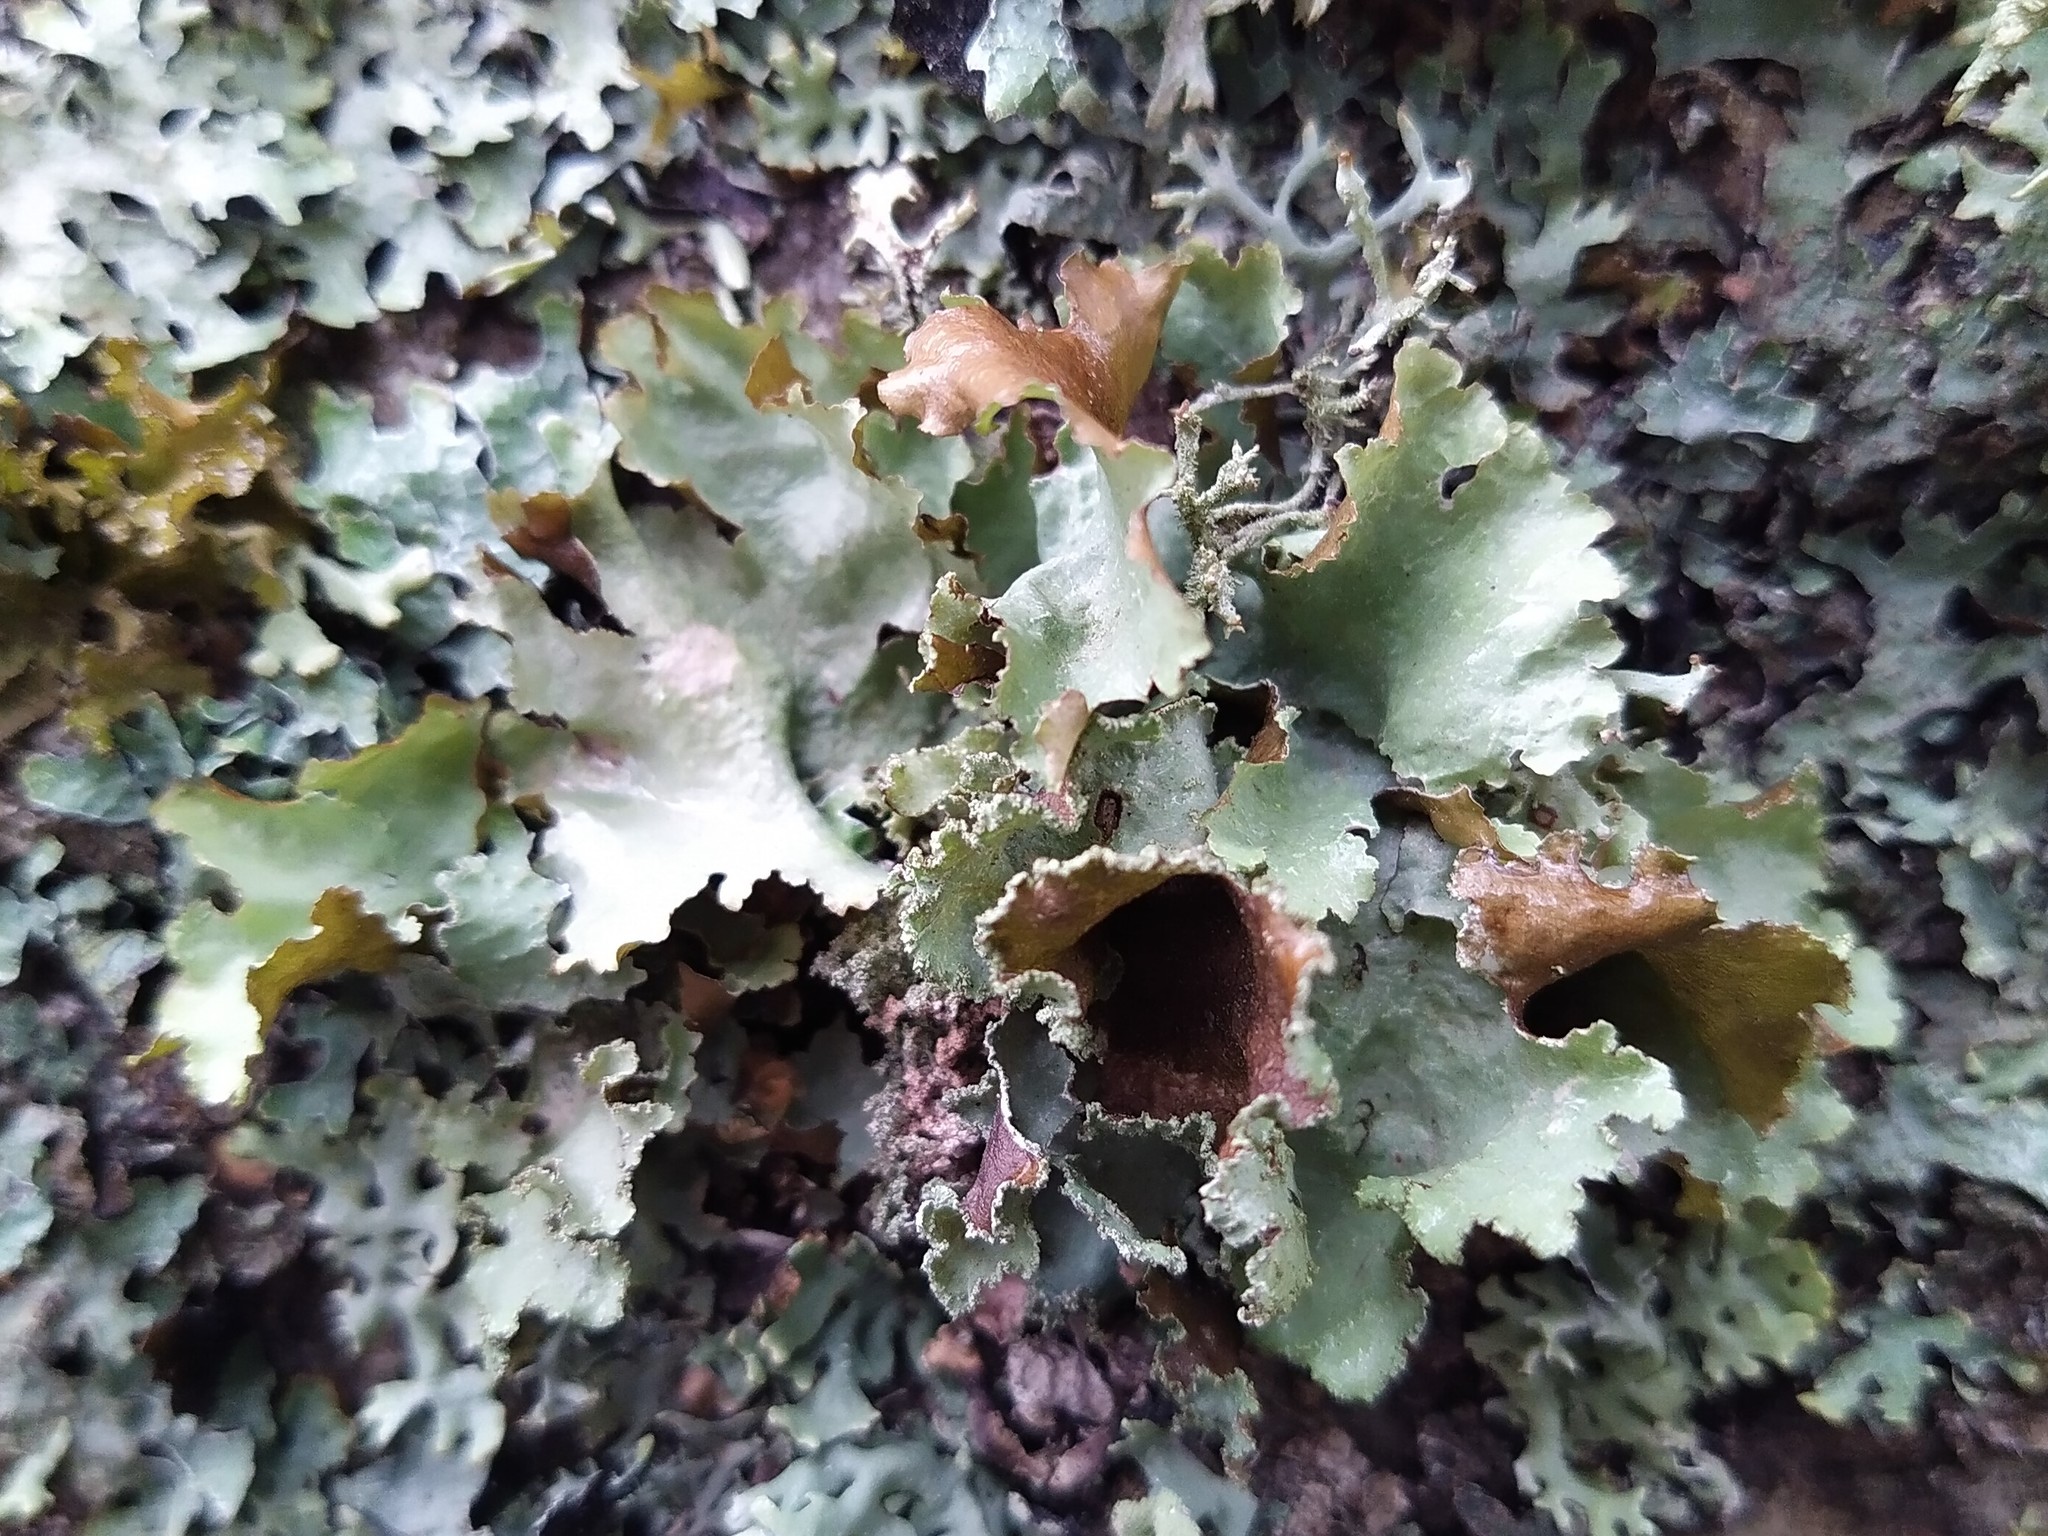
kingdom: Fungi
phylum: Ascomycota
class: Lecanoromycetes
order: Lecanorales
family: Parmeliaceae
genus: Platismatia
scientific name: Platismatia glauca
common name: Varied rag lichen
